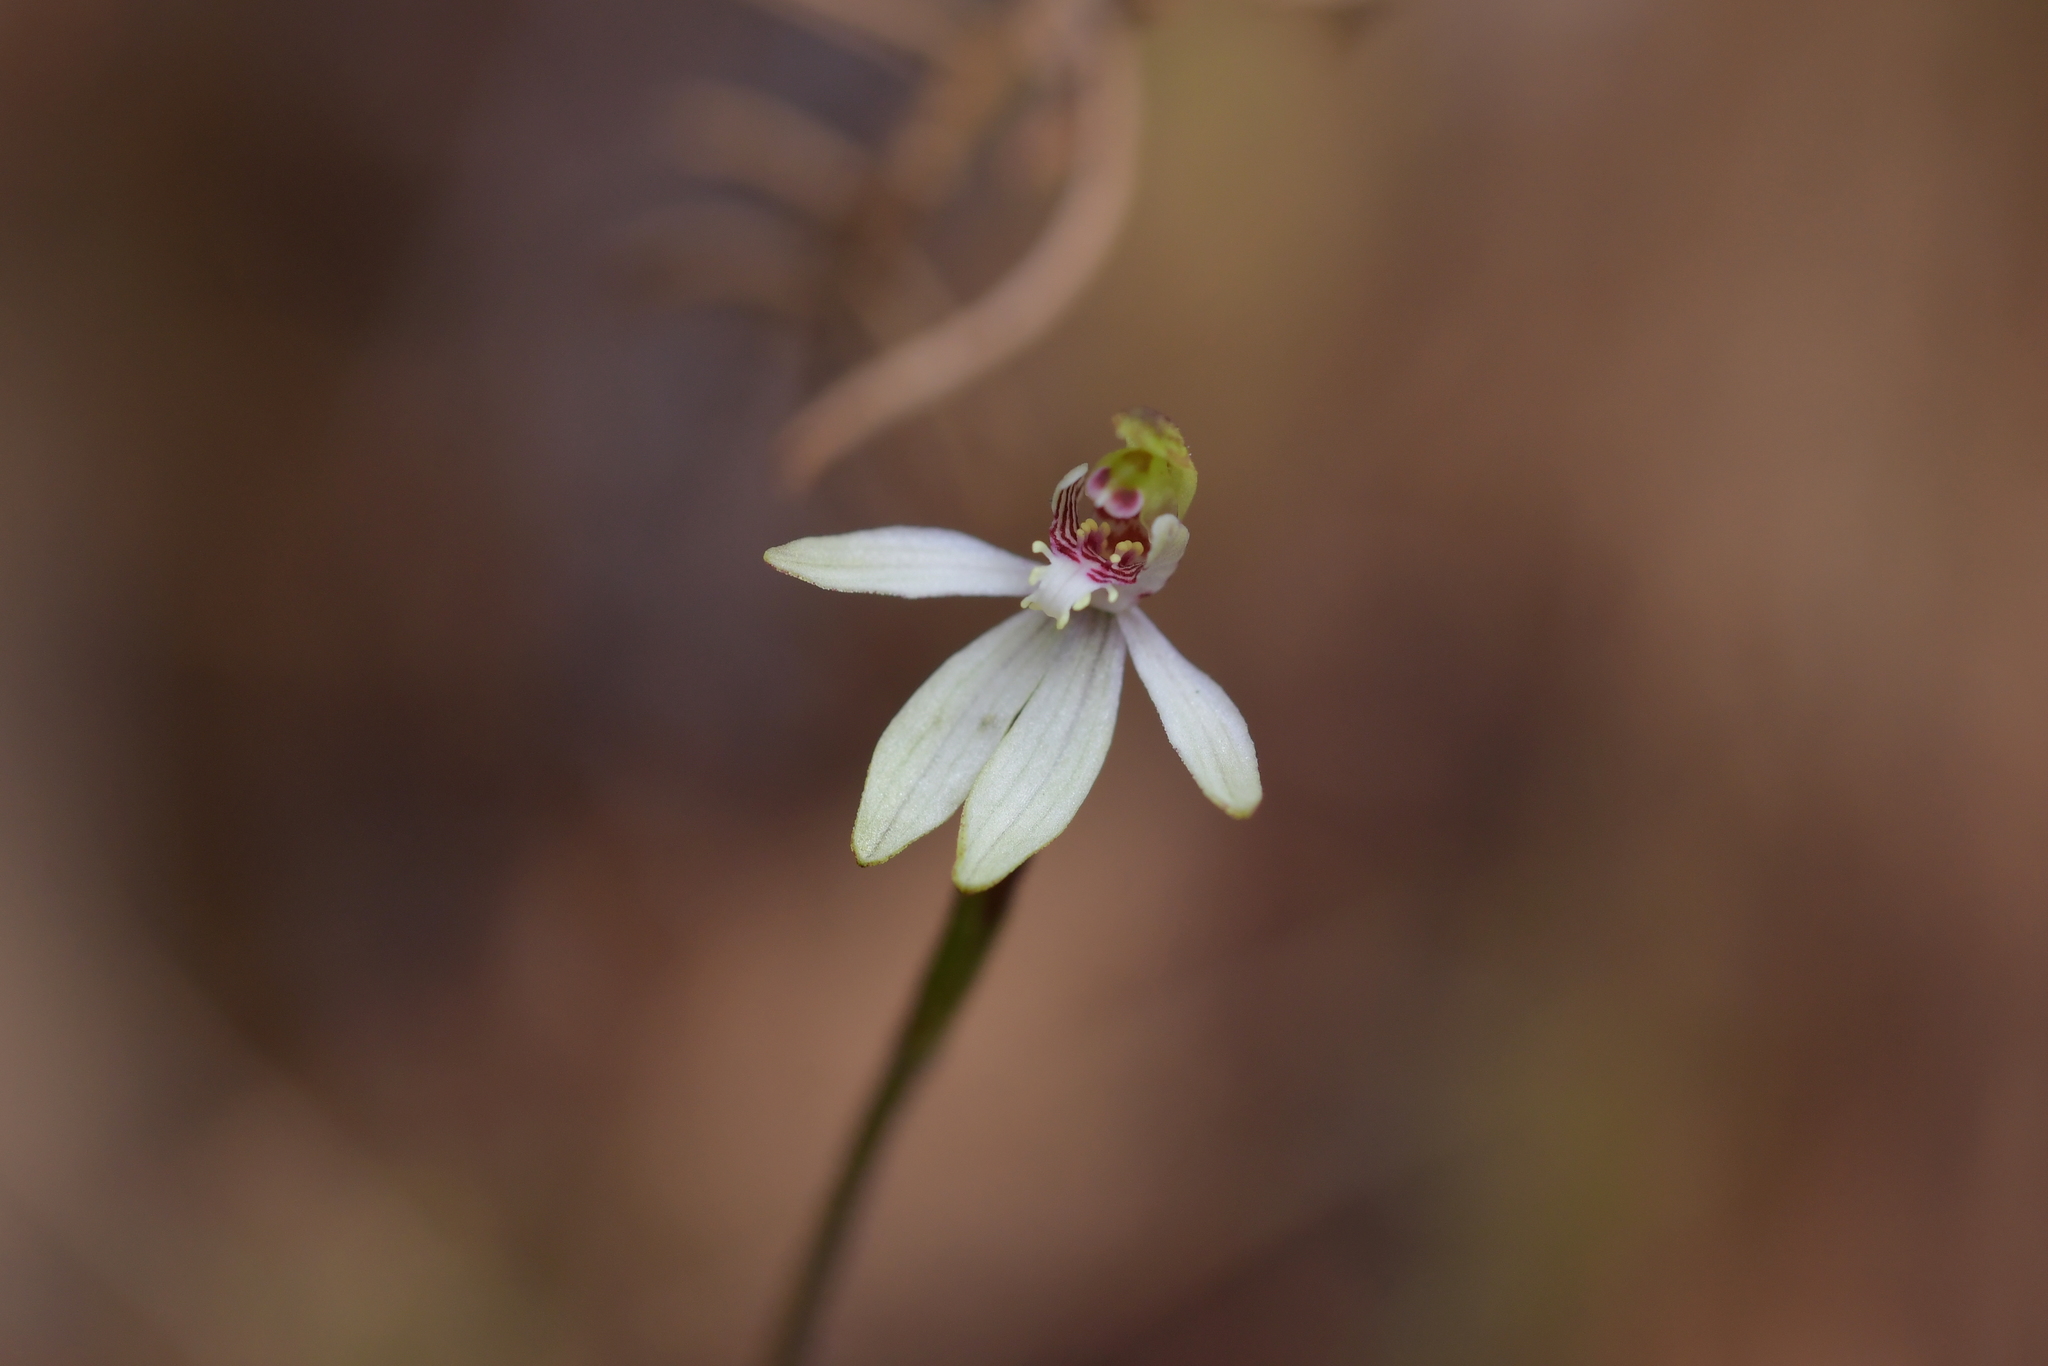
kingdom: Plantae
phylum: Tracheophyta
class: Liliopsida
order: Asparagales
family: Orchidaceae
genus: Caladenia
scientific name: Caladenia chlorostyla
